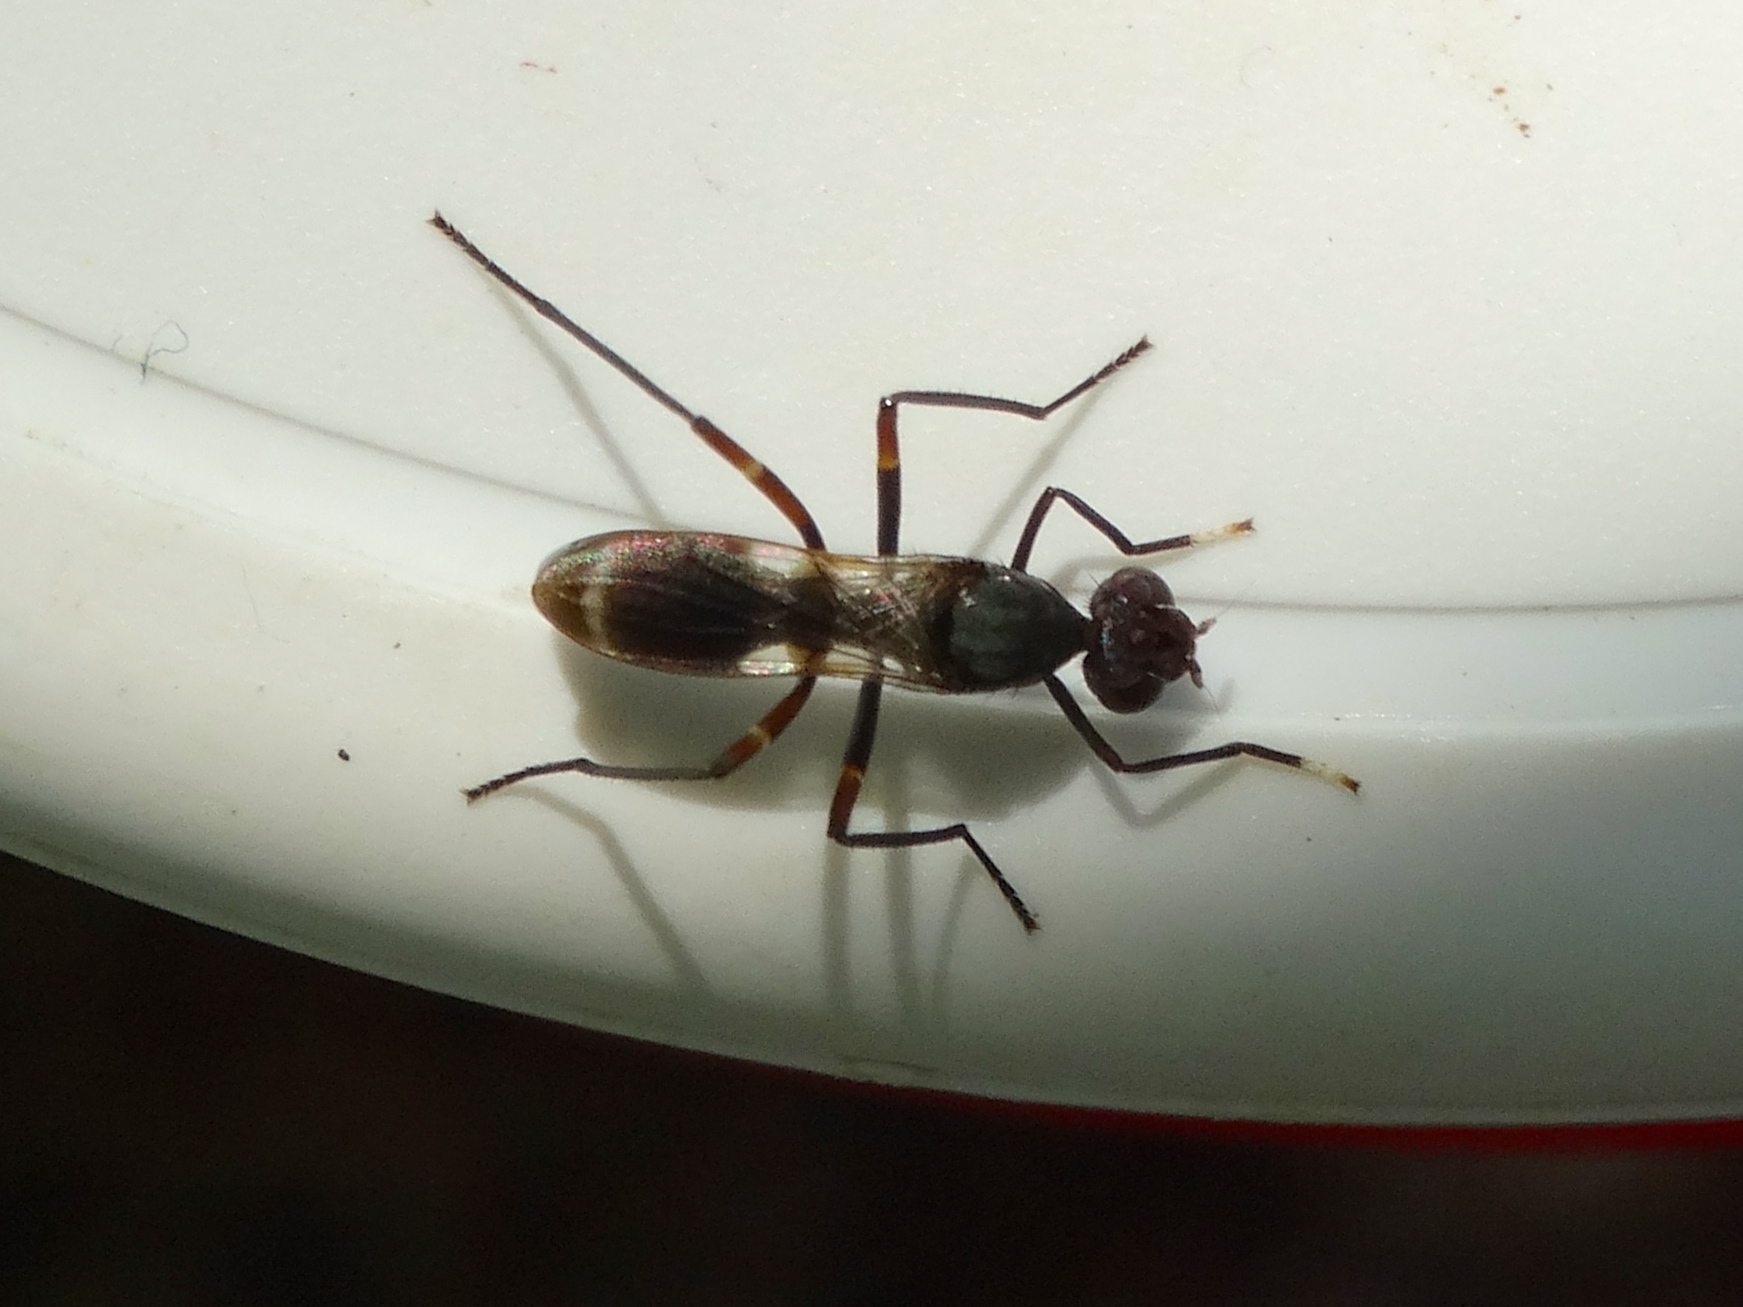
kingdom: Animalia
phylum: Arthropoda
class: Insecta
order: Diptera
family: Micropezidae
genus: Taeniaptera
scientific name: Taeniaptera lasciva
